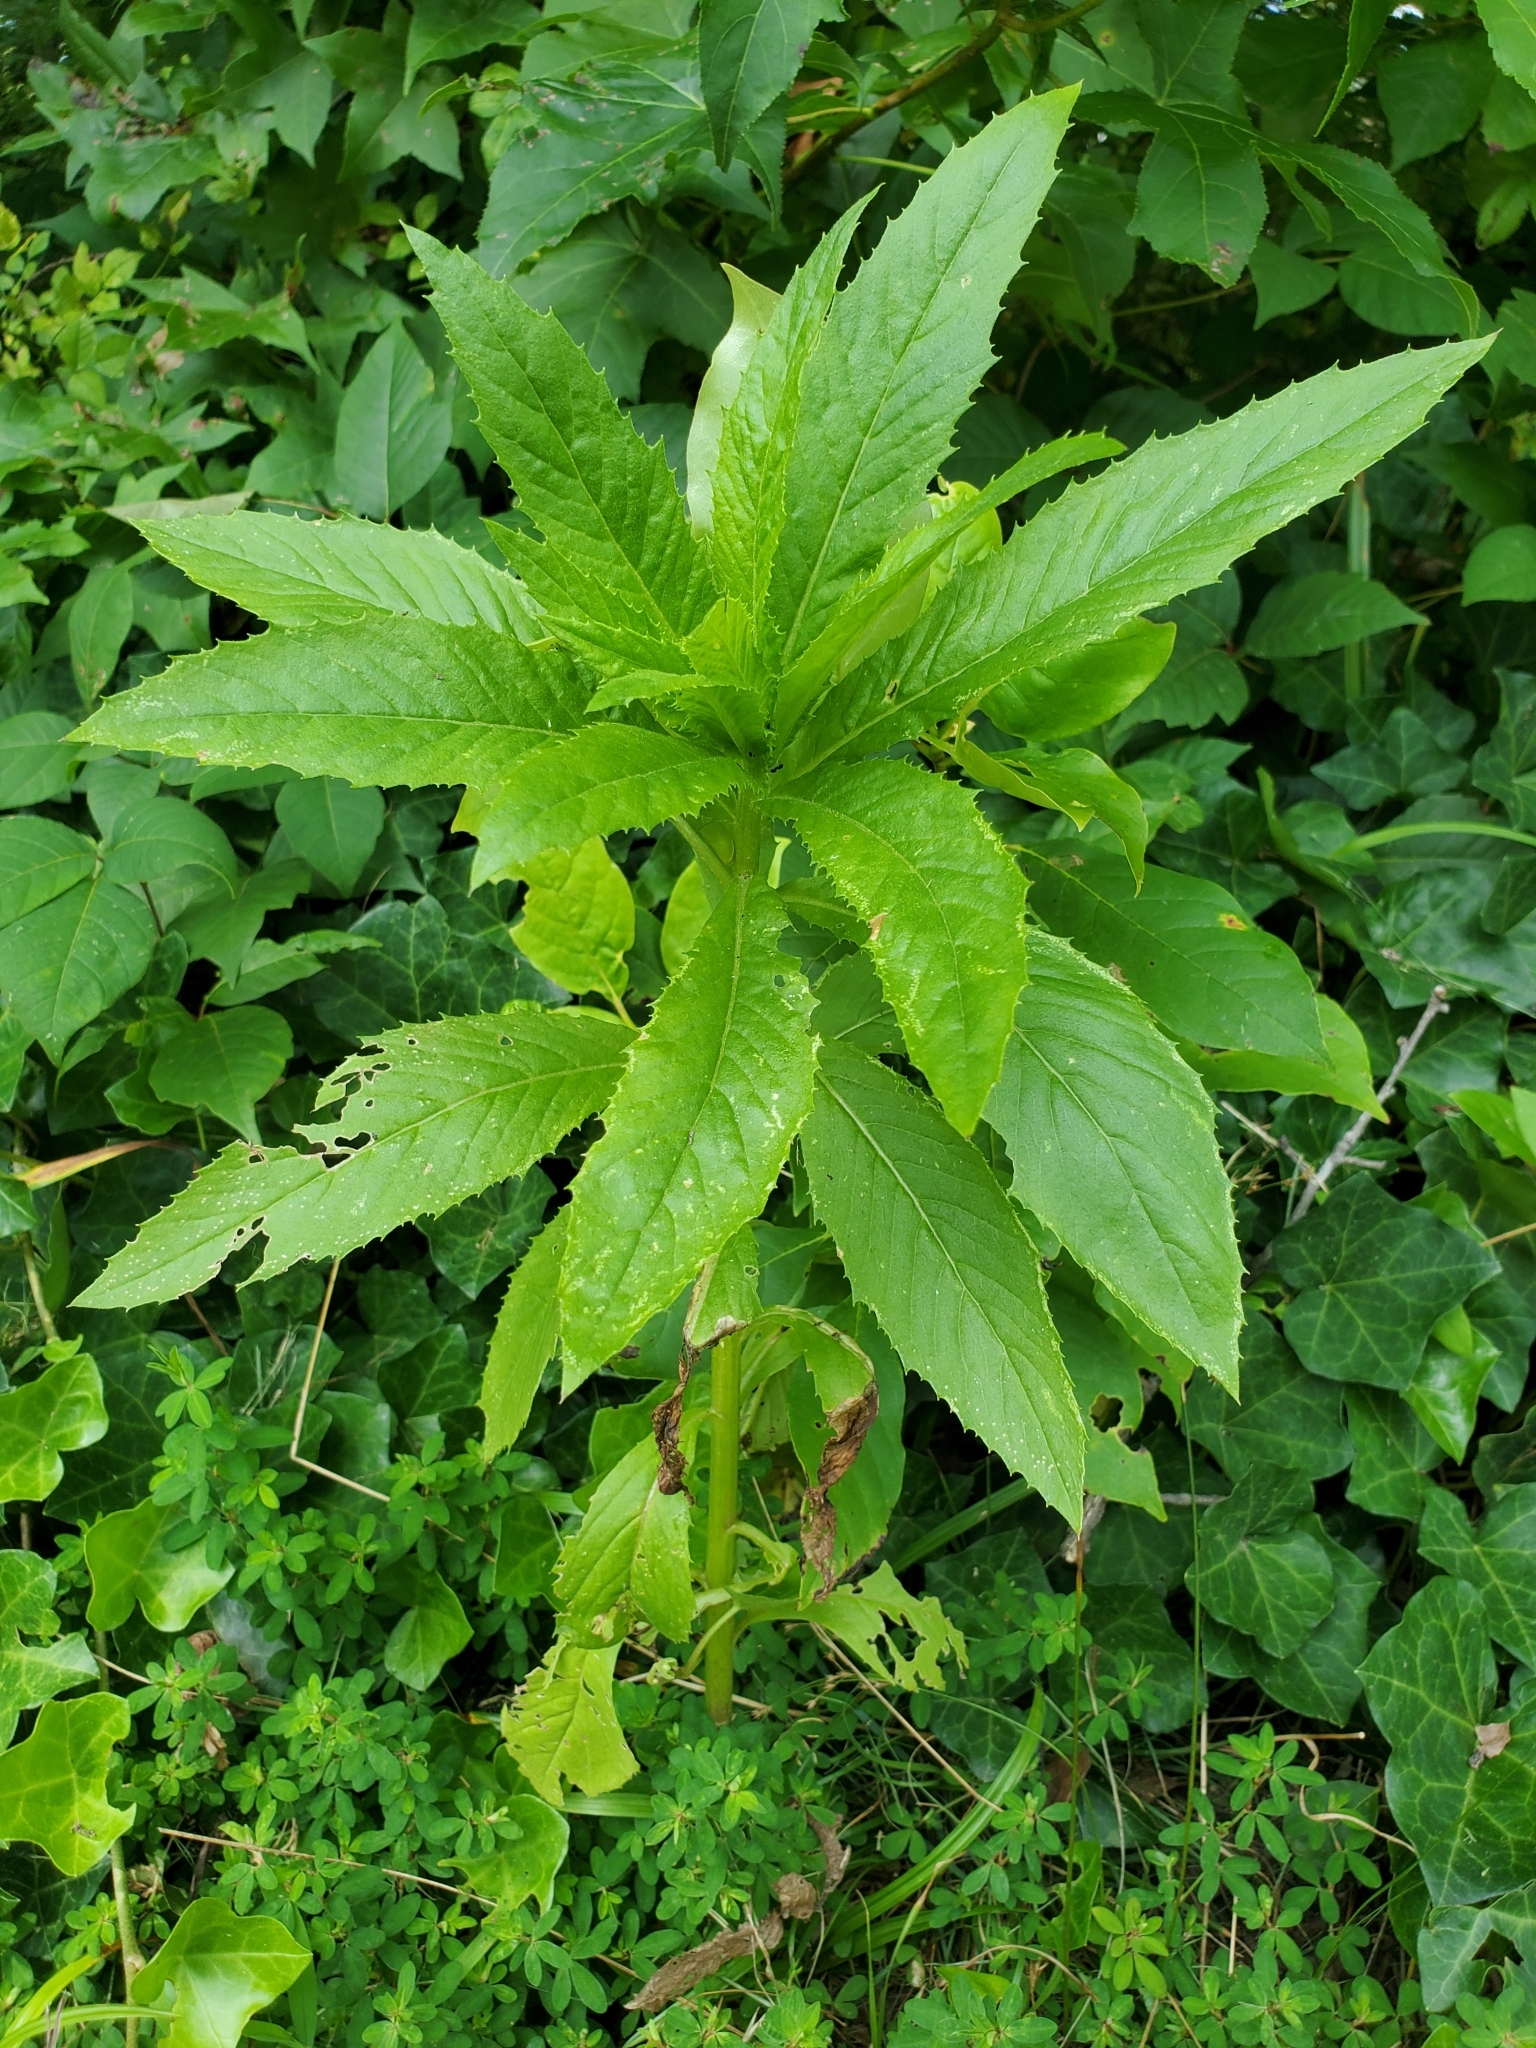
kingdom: Plantae
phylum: Tracheophyta
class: Magnoliopsida
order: Asterales
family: Asteraceae
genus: Erechtites
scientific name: Erechtites hieraciifolius
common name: American burnweed
